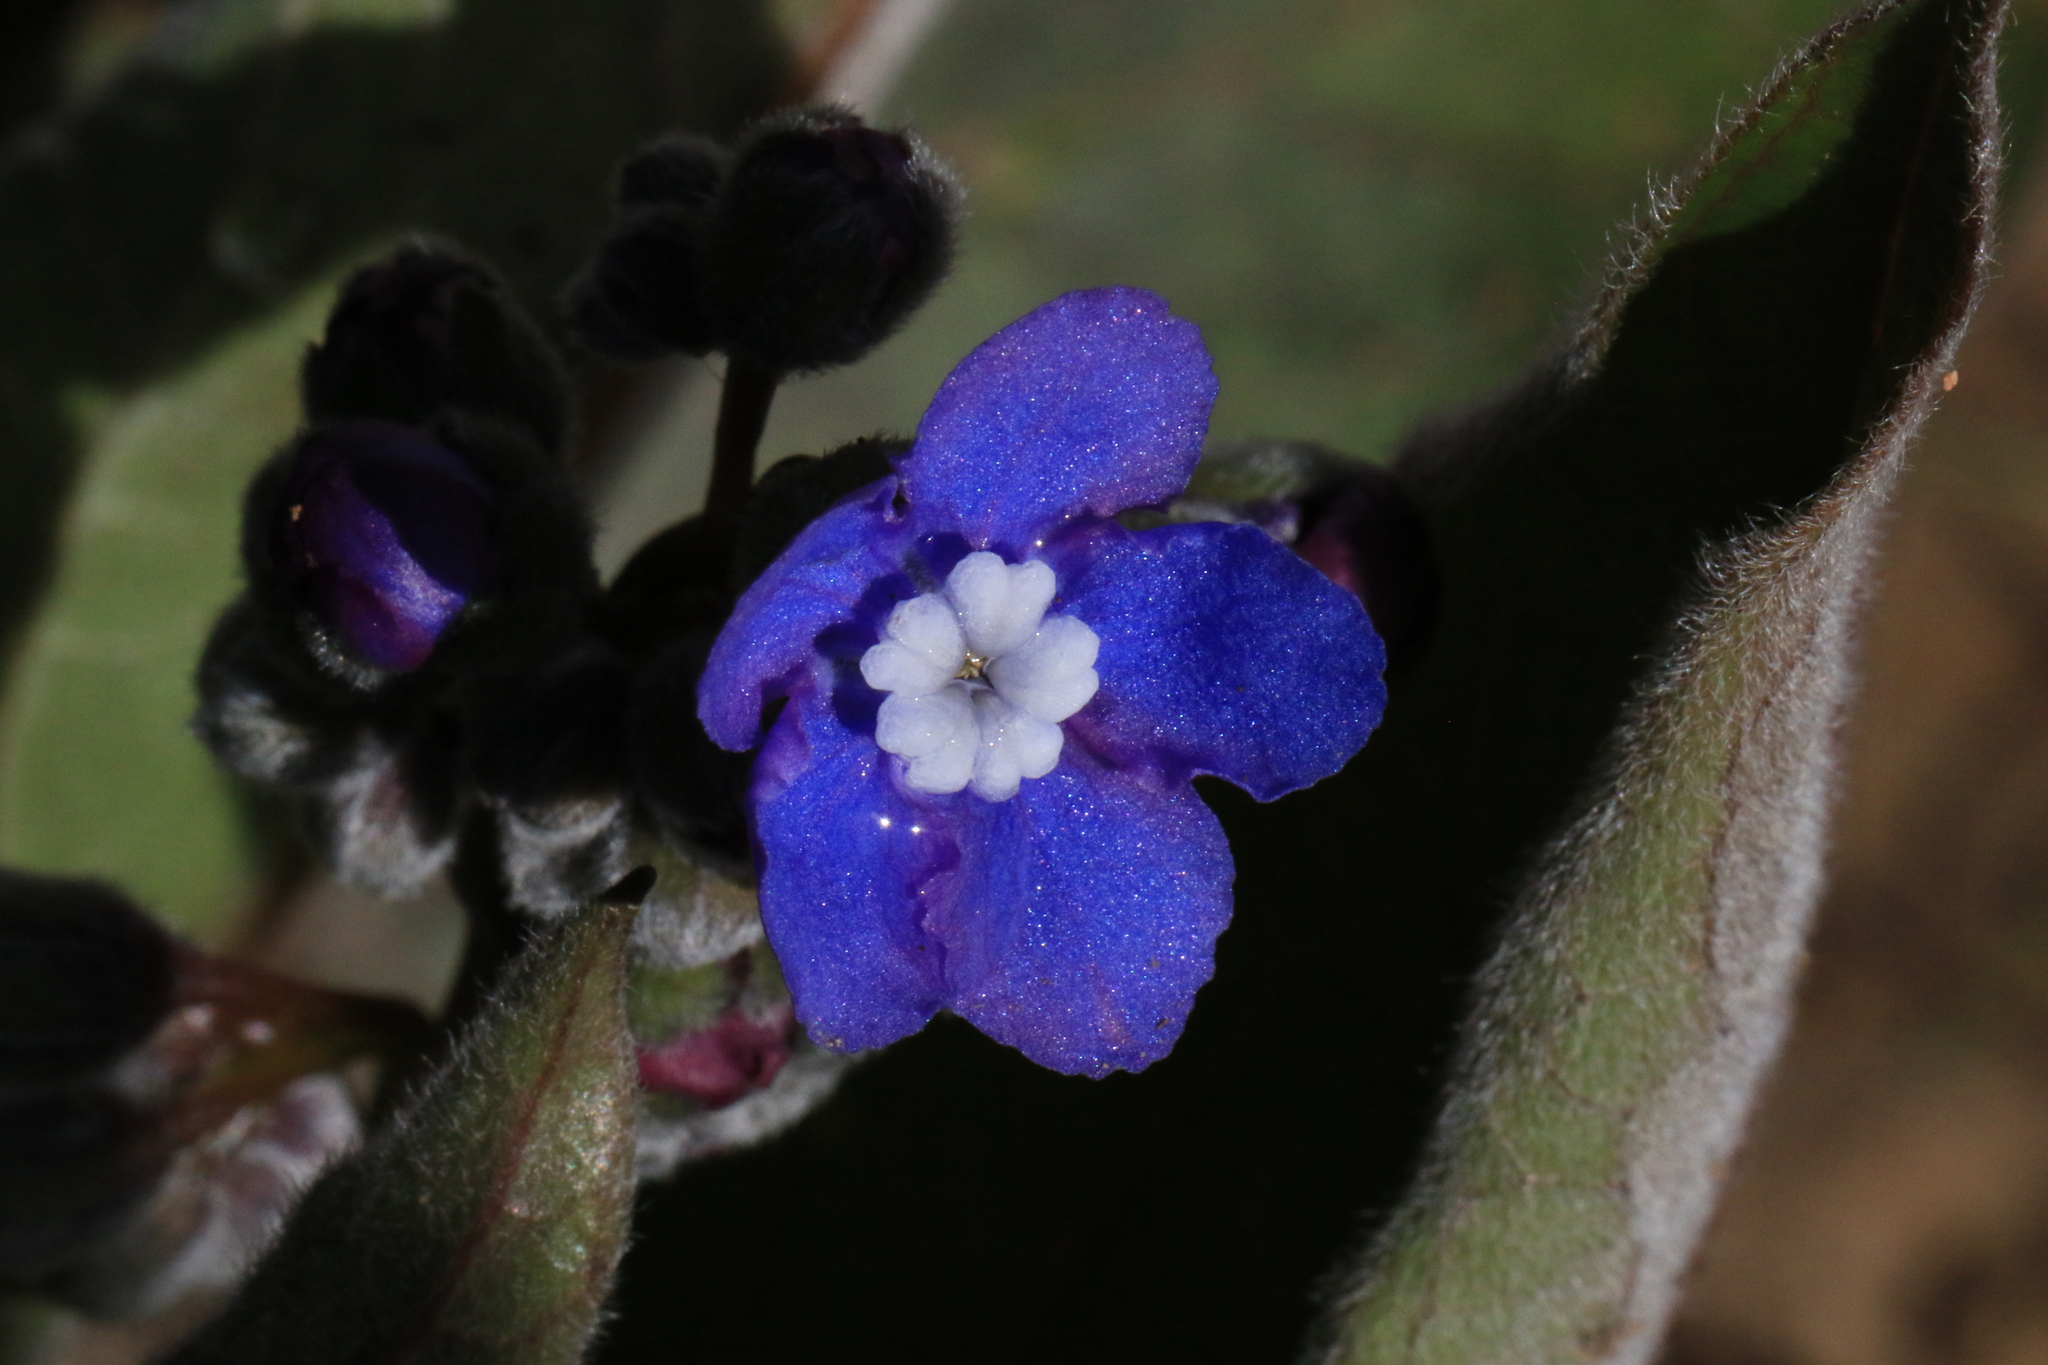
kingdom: Plantae
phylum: Tracheophyta
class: Magnoliopsida
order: Boraginales
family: Boraginaceae
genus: Adelinia
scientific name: Adelinia grande
